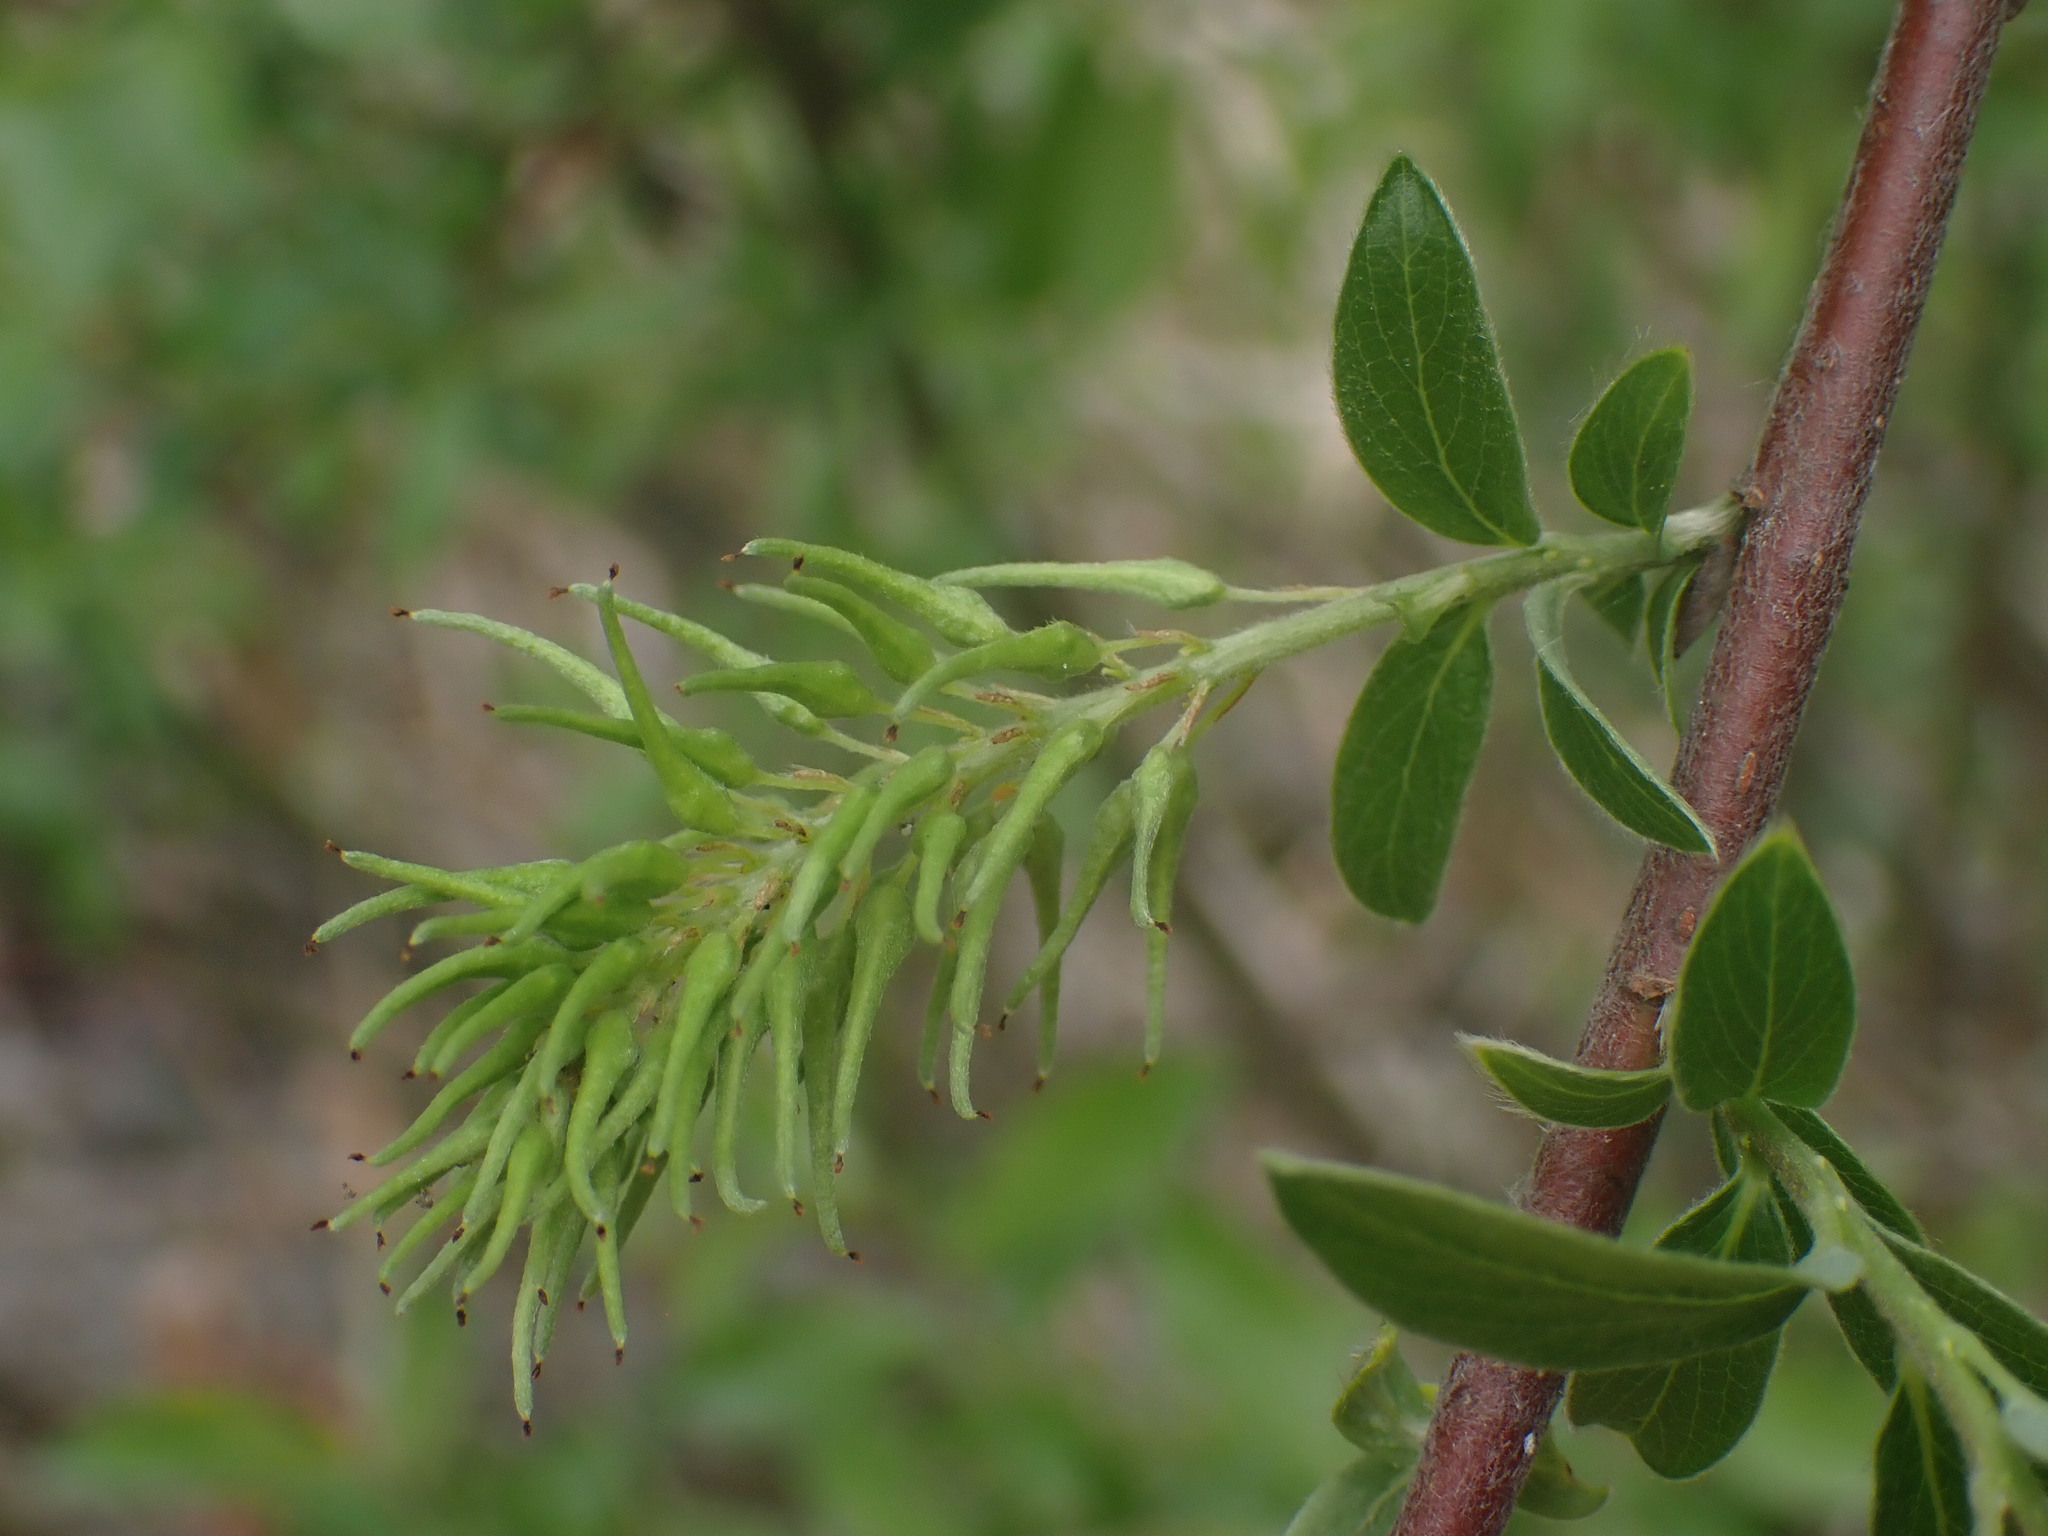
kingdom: Plantae
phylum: Tracheophyta
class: Magnoliopsida
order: Malpighiales
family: Salicaceae
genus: Salix
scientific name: Salix bebbiana
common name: Bebb's willow
